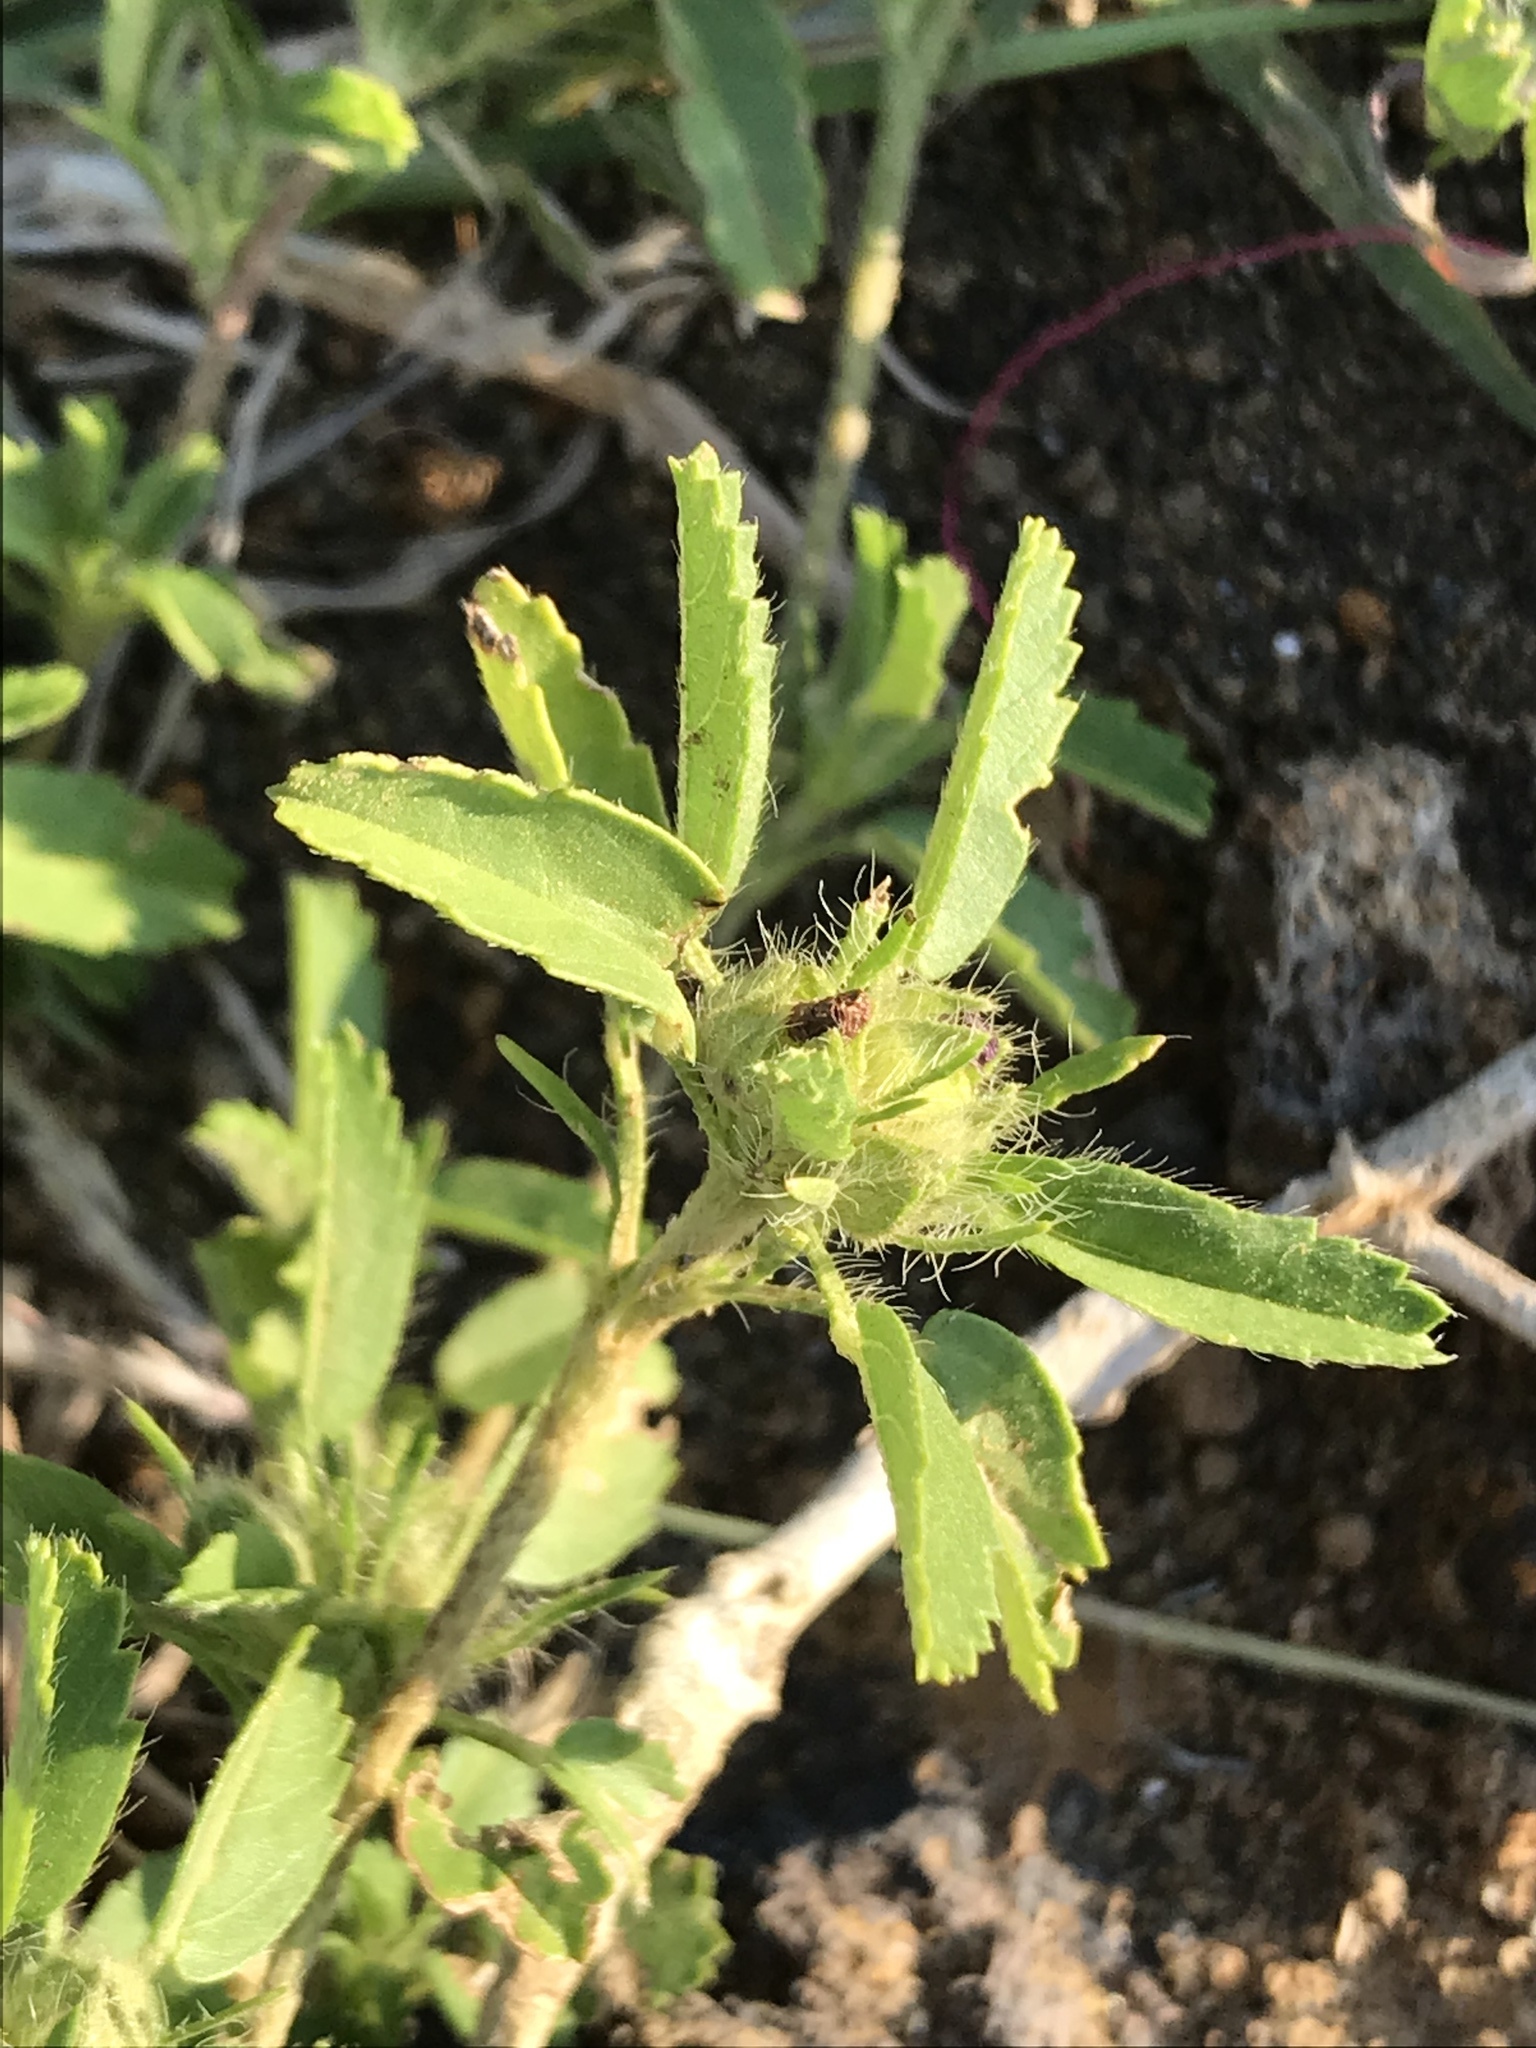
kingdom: Plantae
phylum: Tracheophyta
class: Magnoliopsida
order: Malvales
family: Malvaceae
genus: Sida
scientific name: Sida ciliaris
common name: Bracted fanpetals
